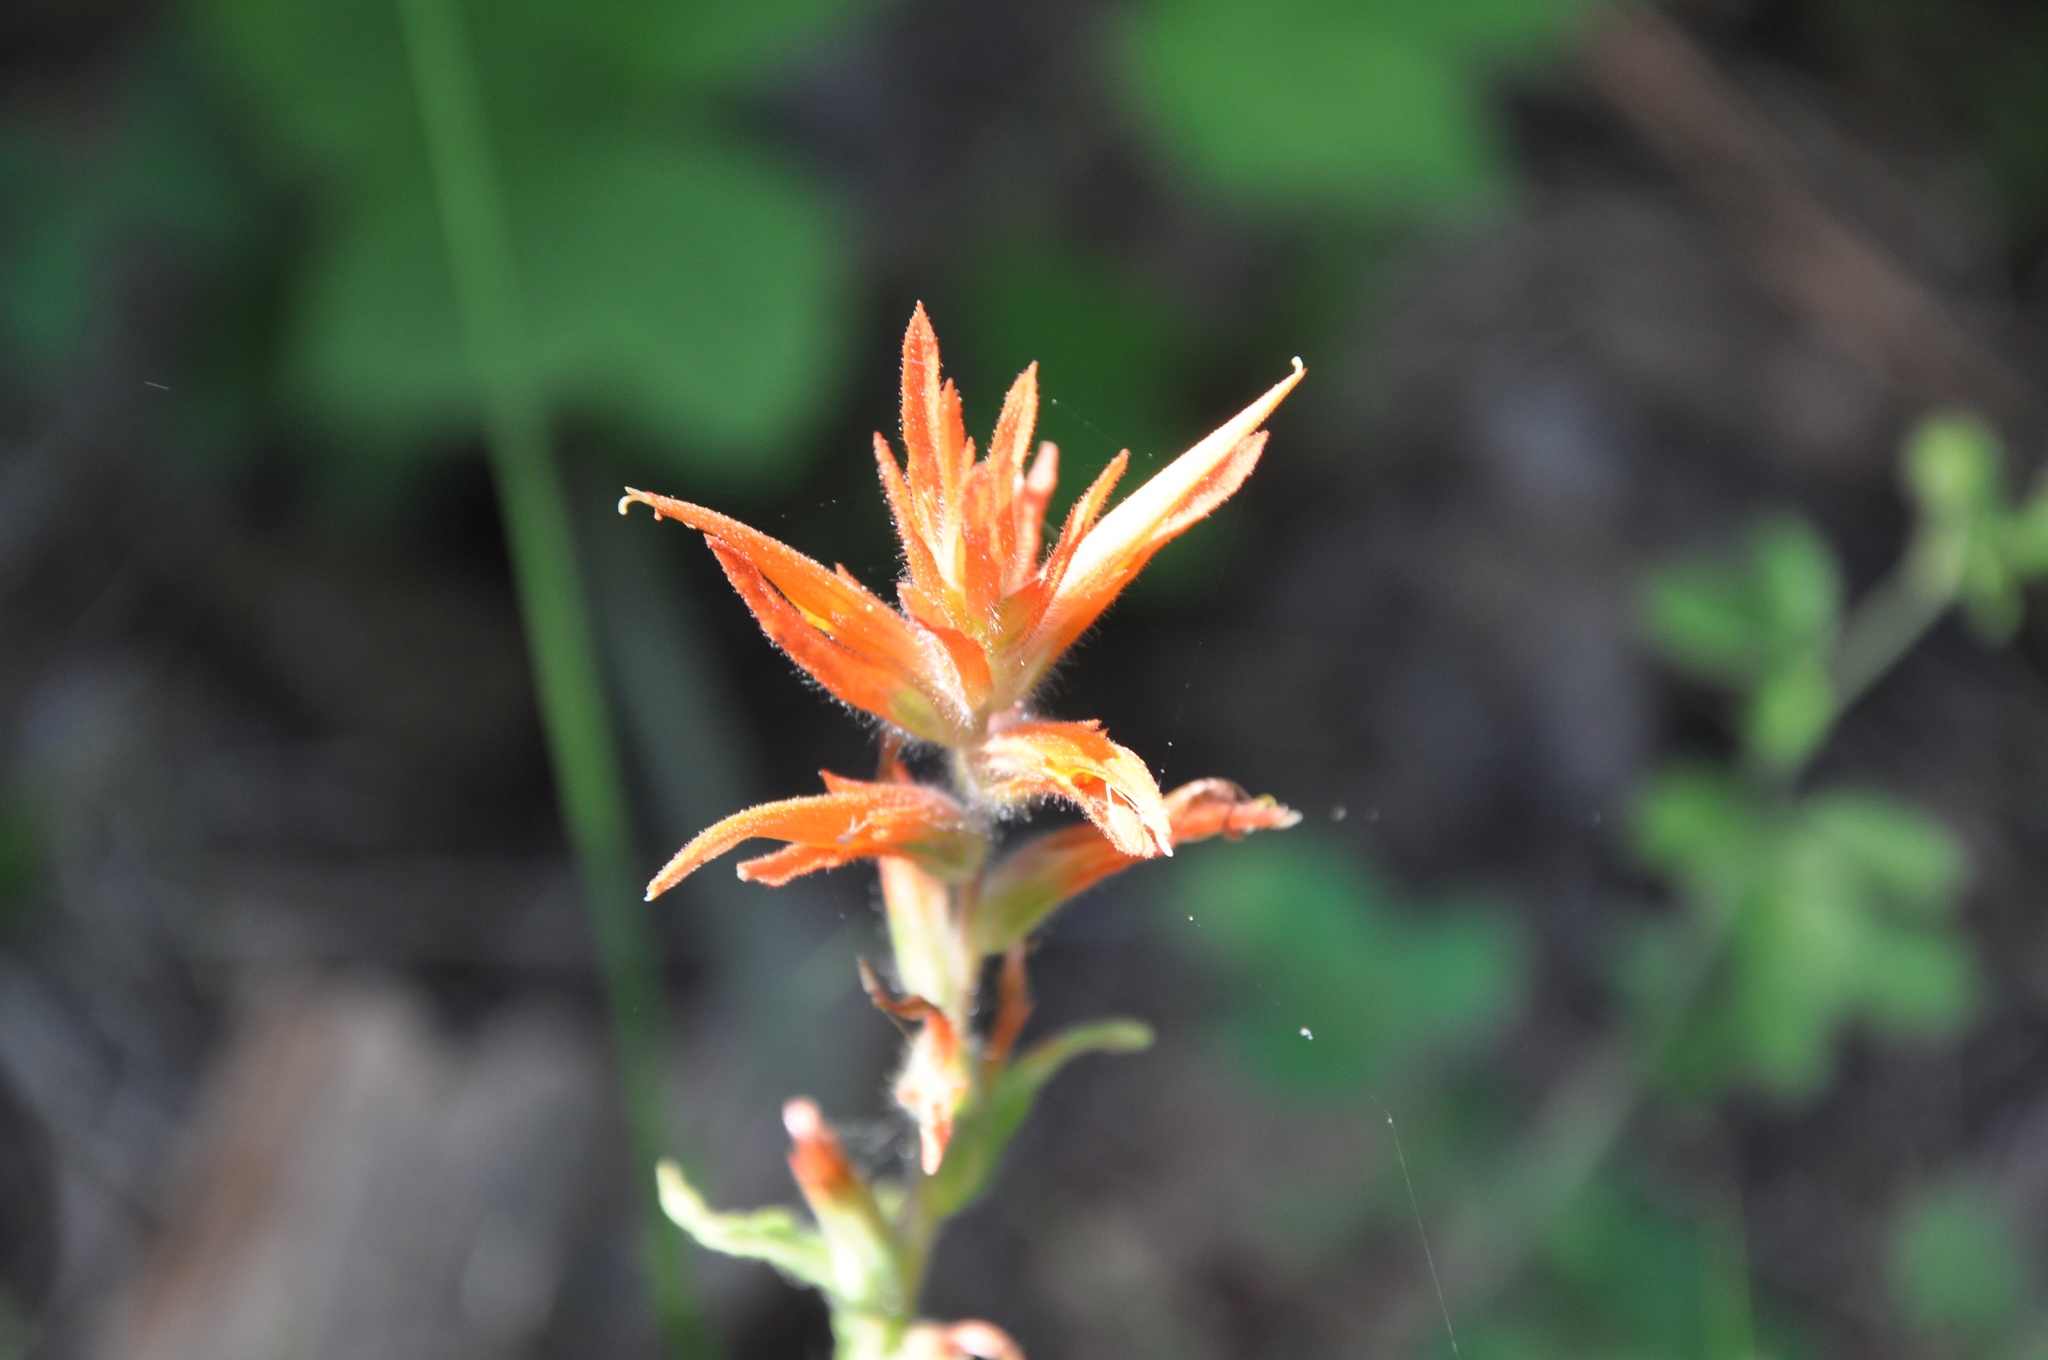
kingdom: Plantae
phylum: Tracheophyta
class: Magnoliopsida
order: Lamiales
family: Orobanchaceae
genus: Castilleja
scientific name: Castilleja disticha
